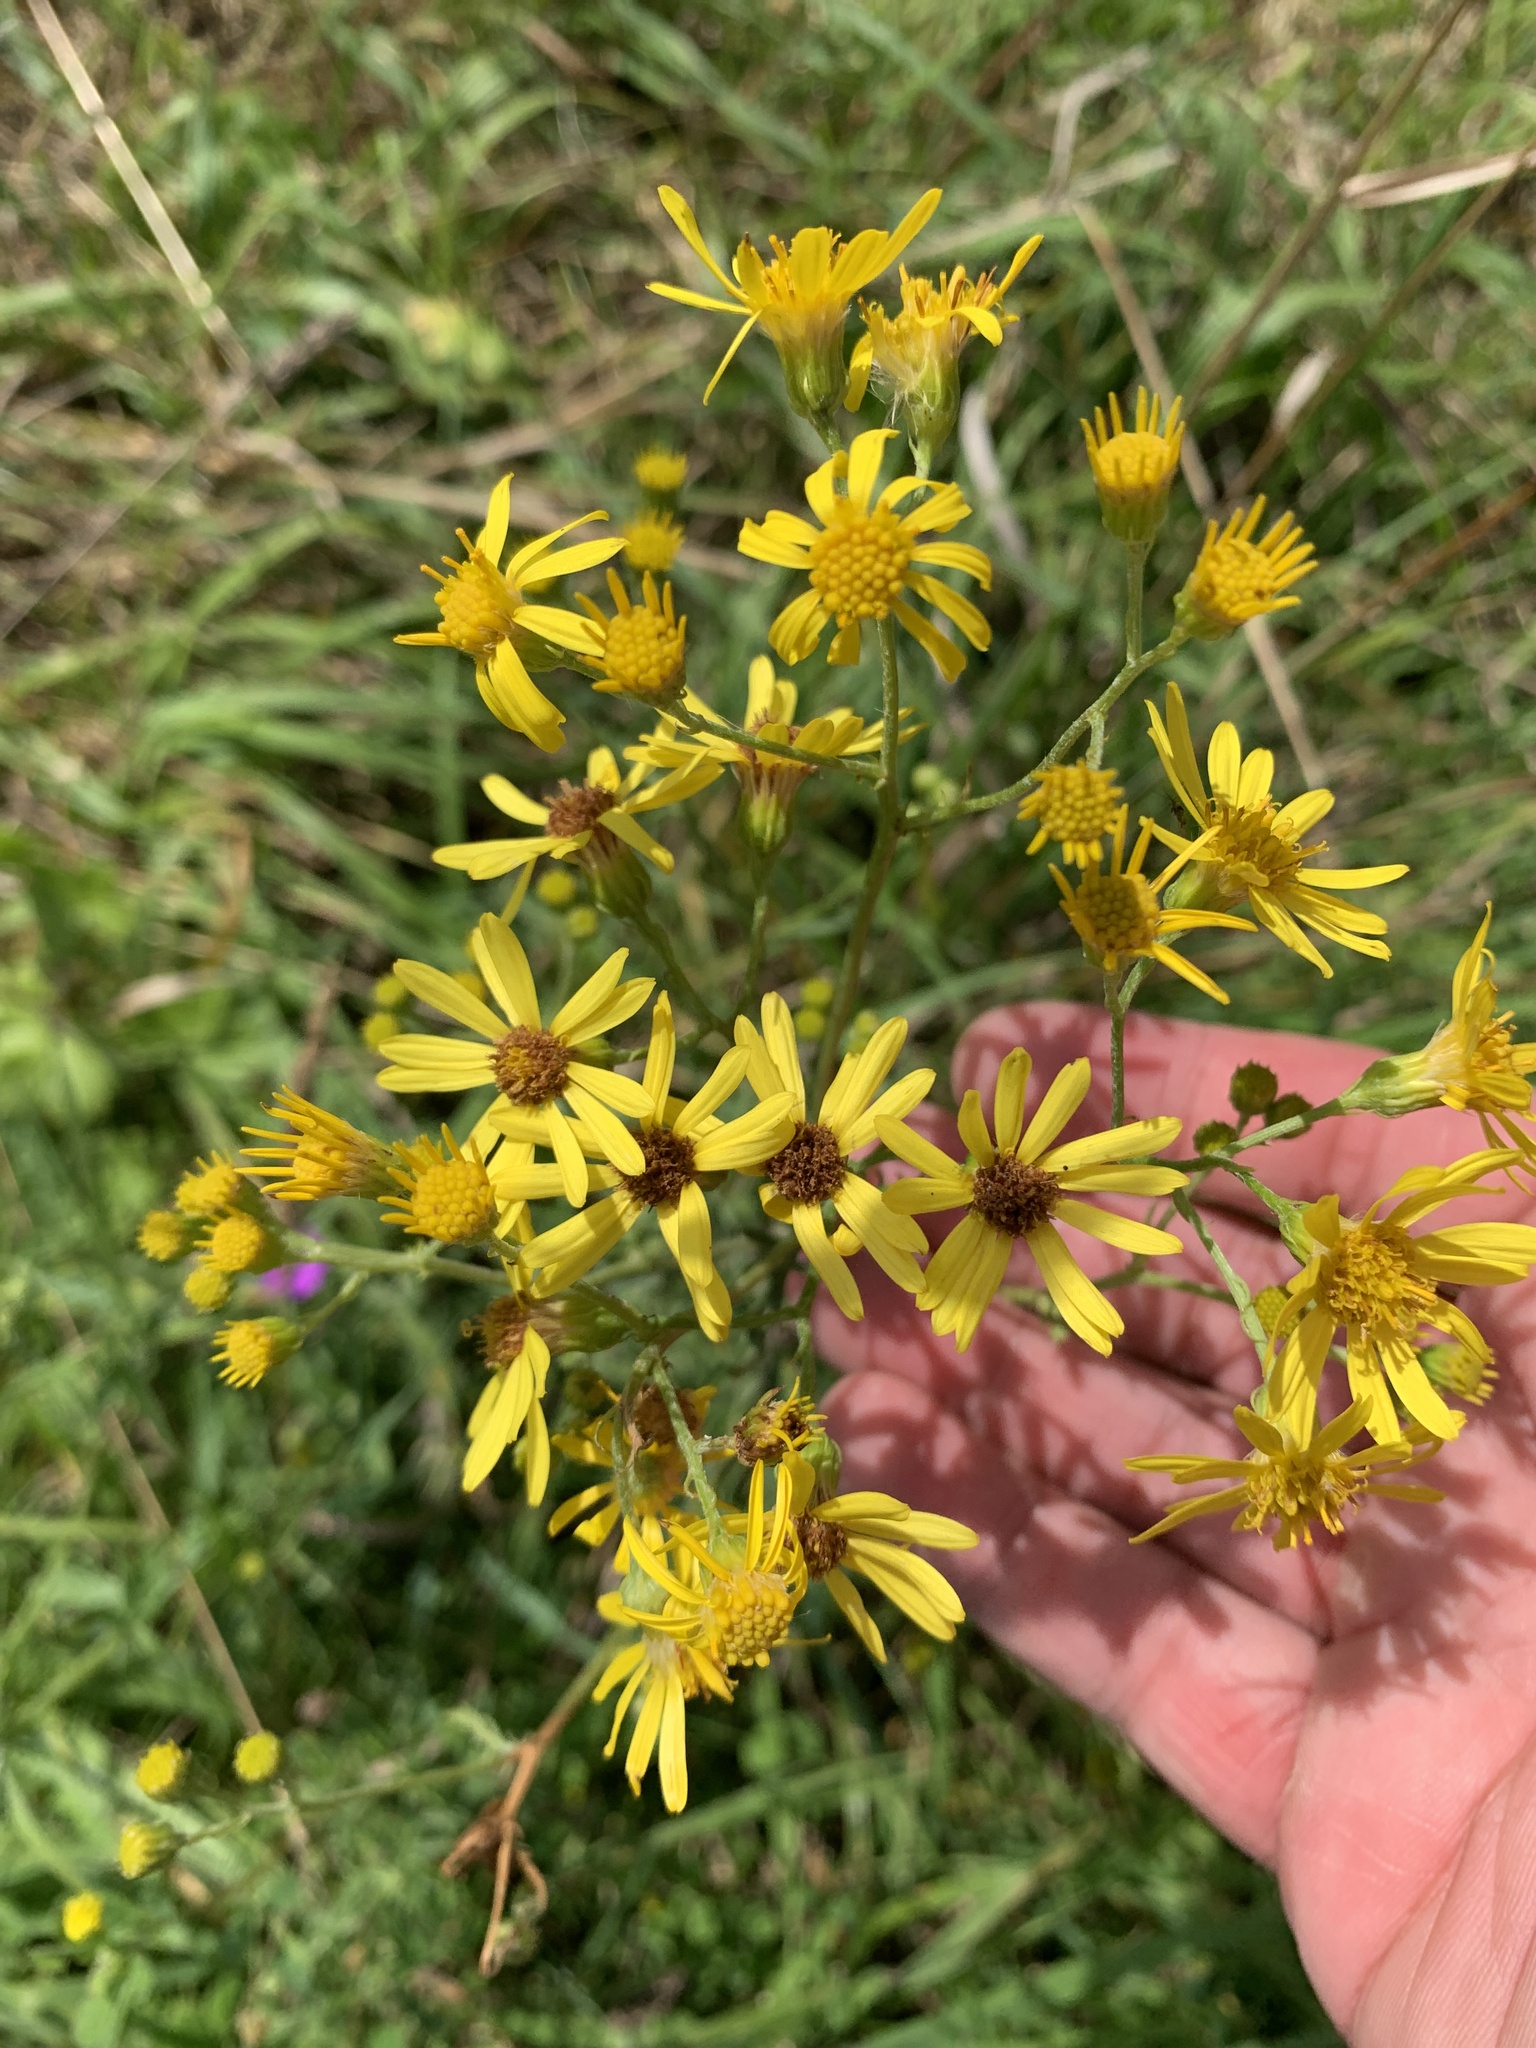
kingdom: Plantae
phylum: Tracheophyta
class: Magnoliopsida
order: Asterales
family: Asteraceae
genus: Jacobaea
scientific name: Jacobaea vulgaris
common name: Stinking willie
